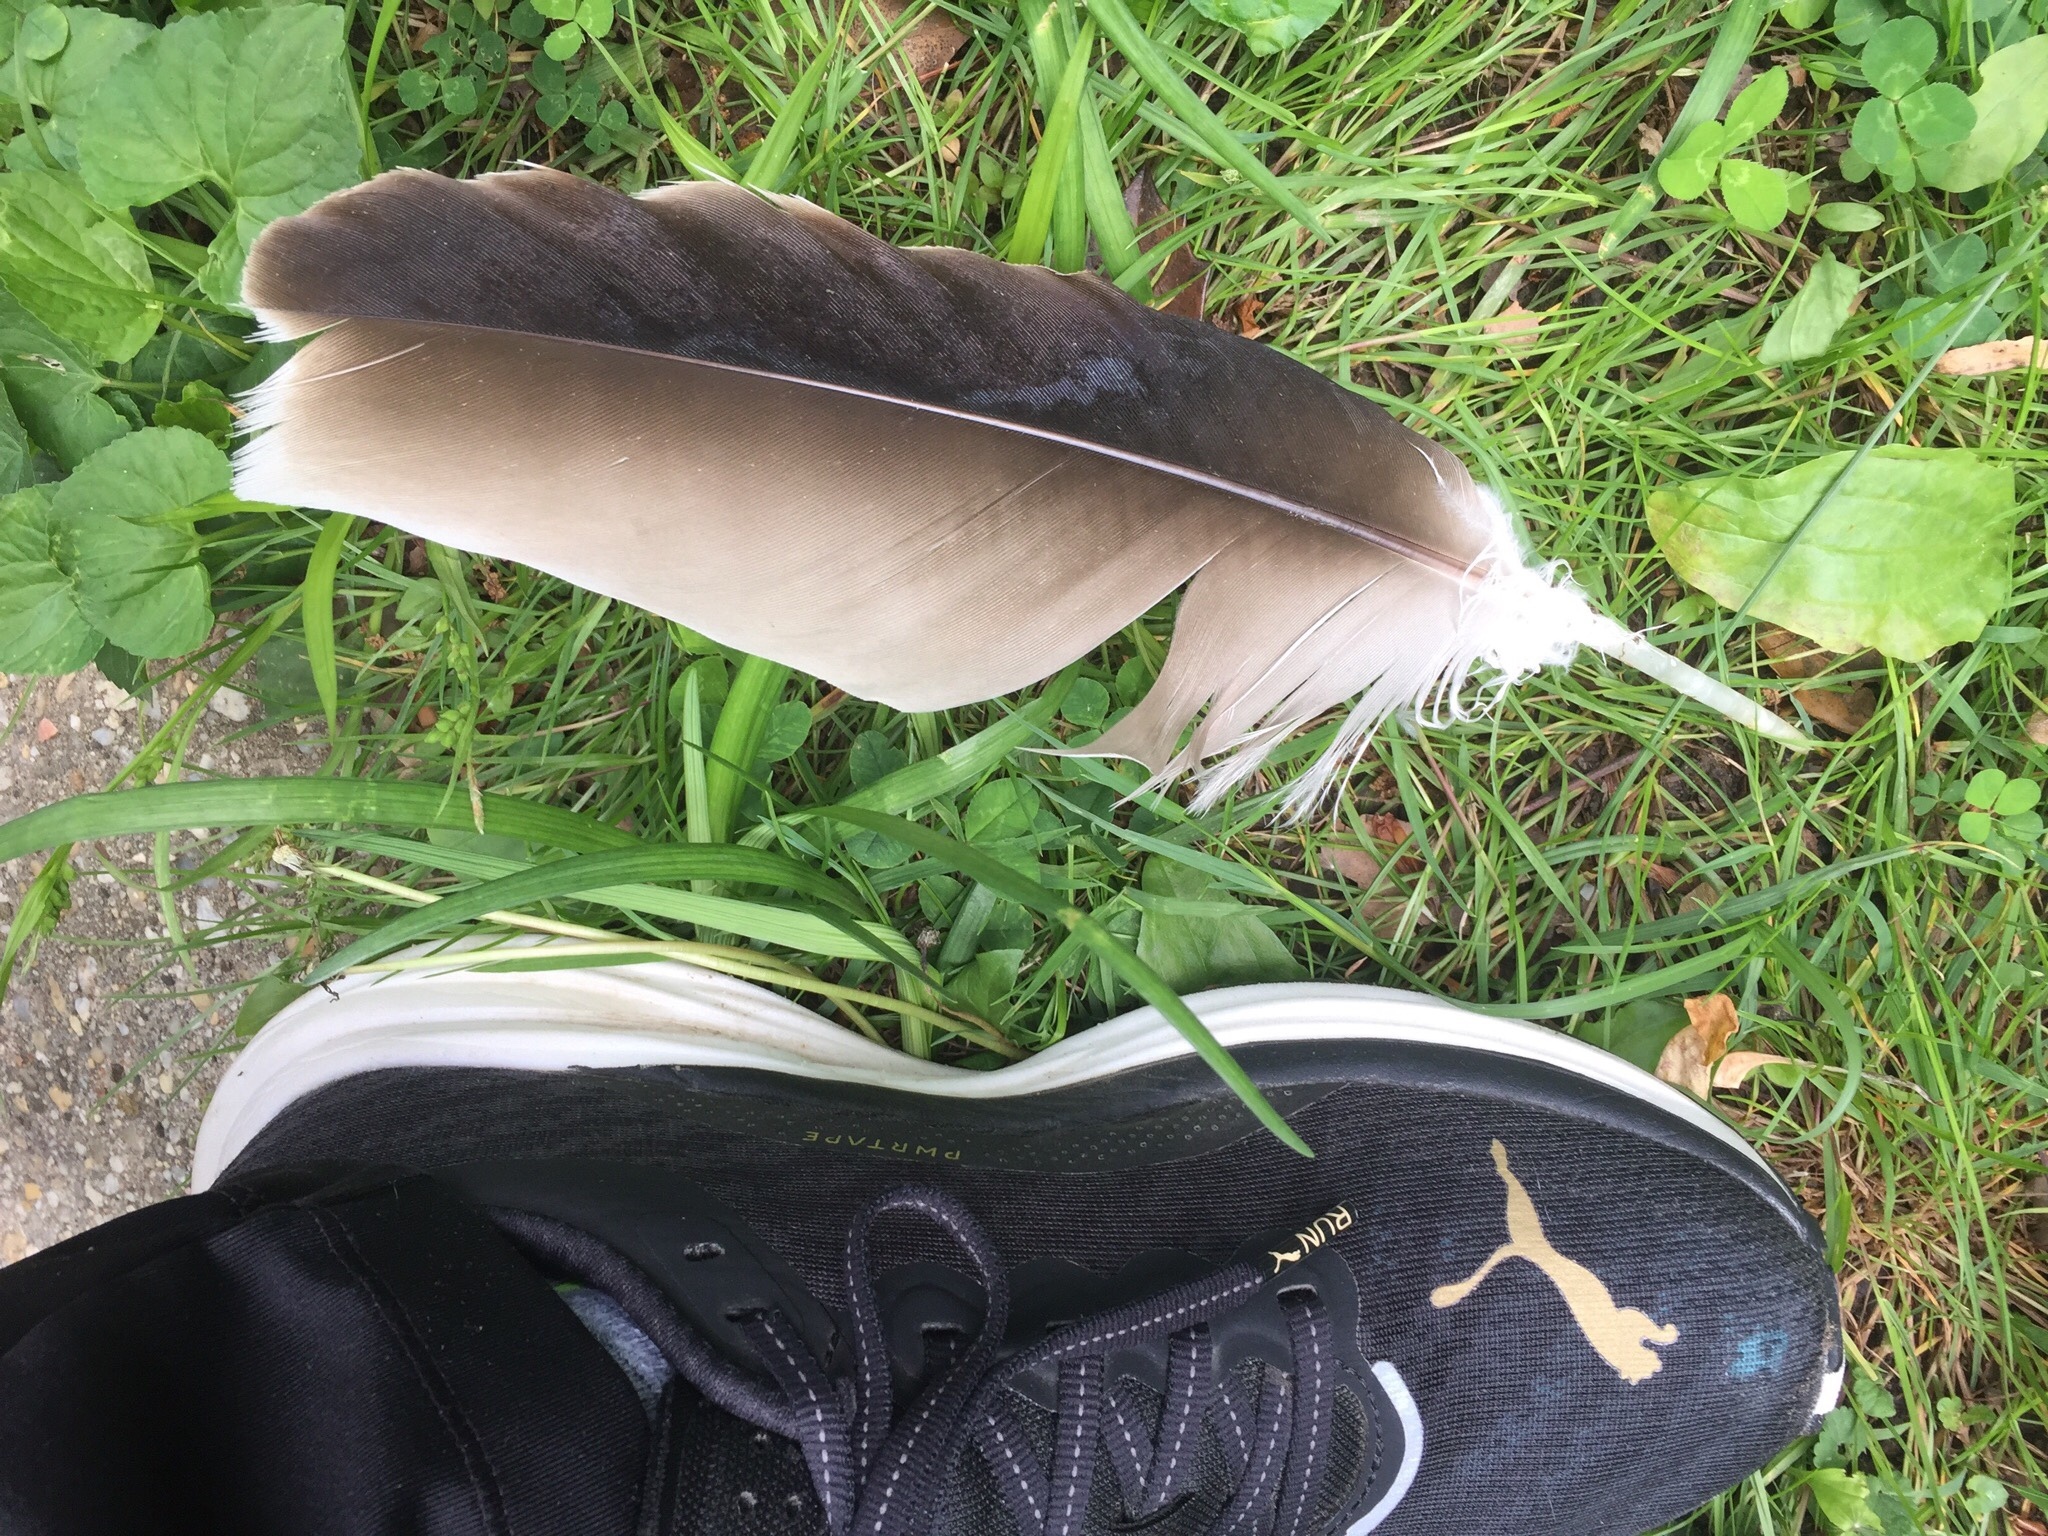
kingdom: Animalia
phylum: Chordata
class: Aves
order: Accipitriformes
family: Cathartidae
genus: Cathartes
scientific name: Cathartes aura
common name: Turkey vulture
